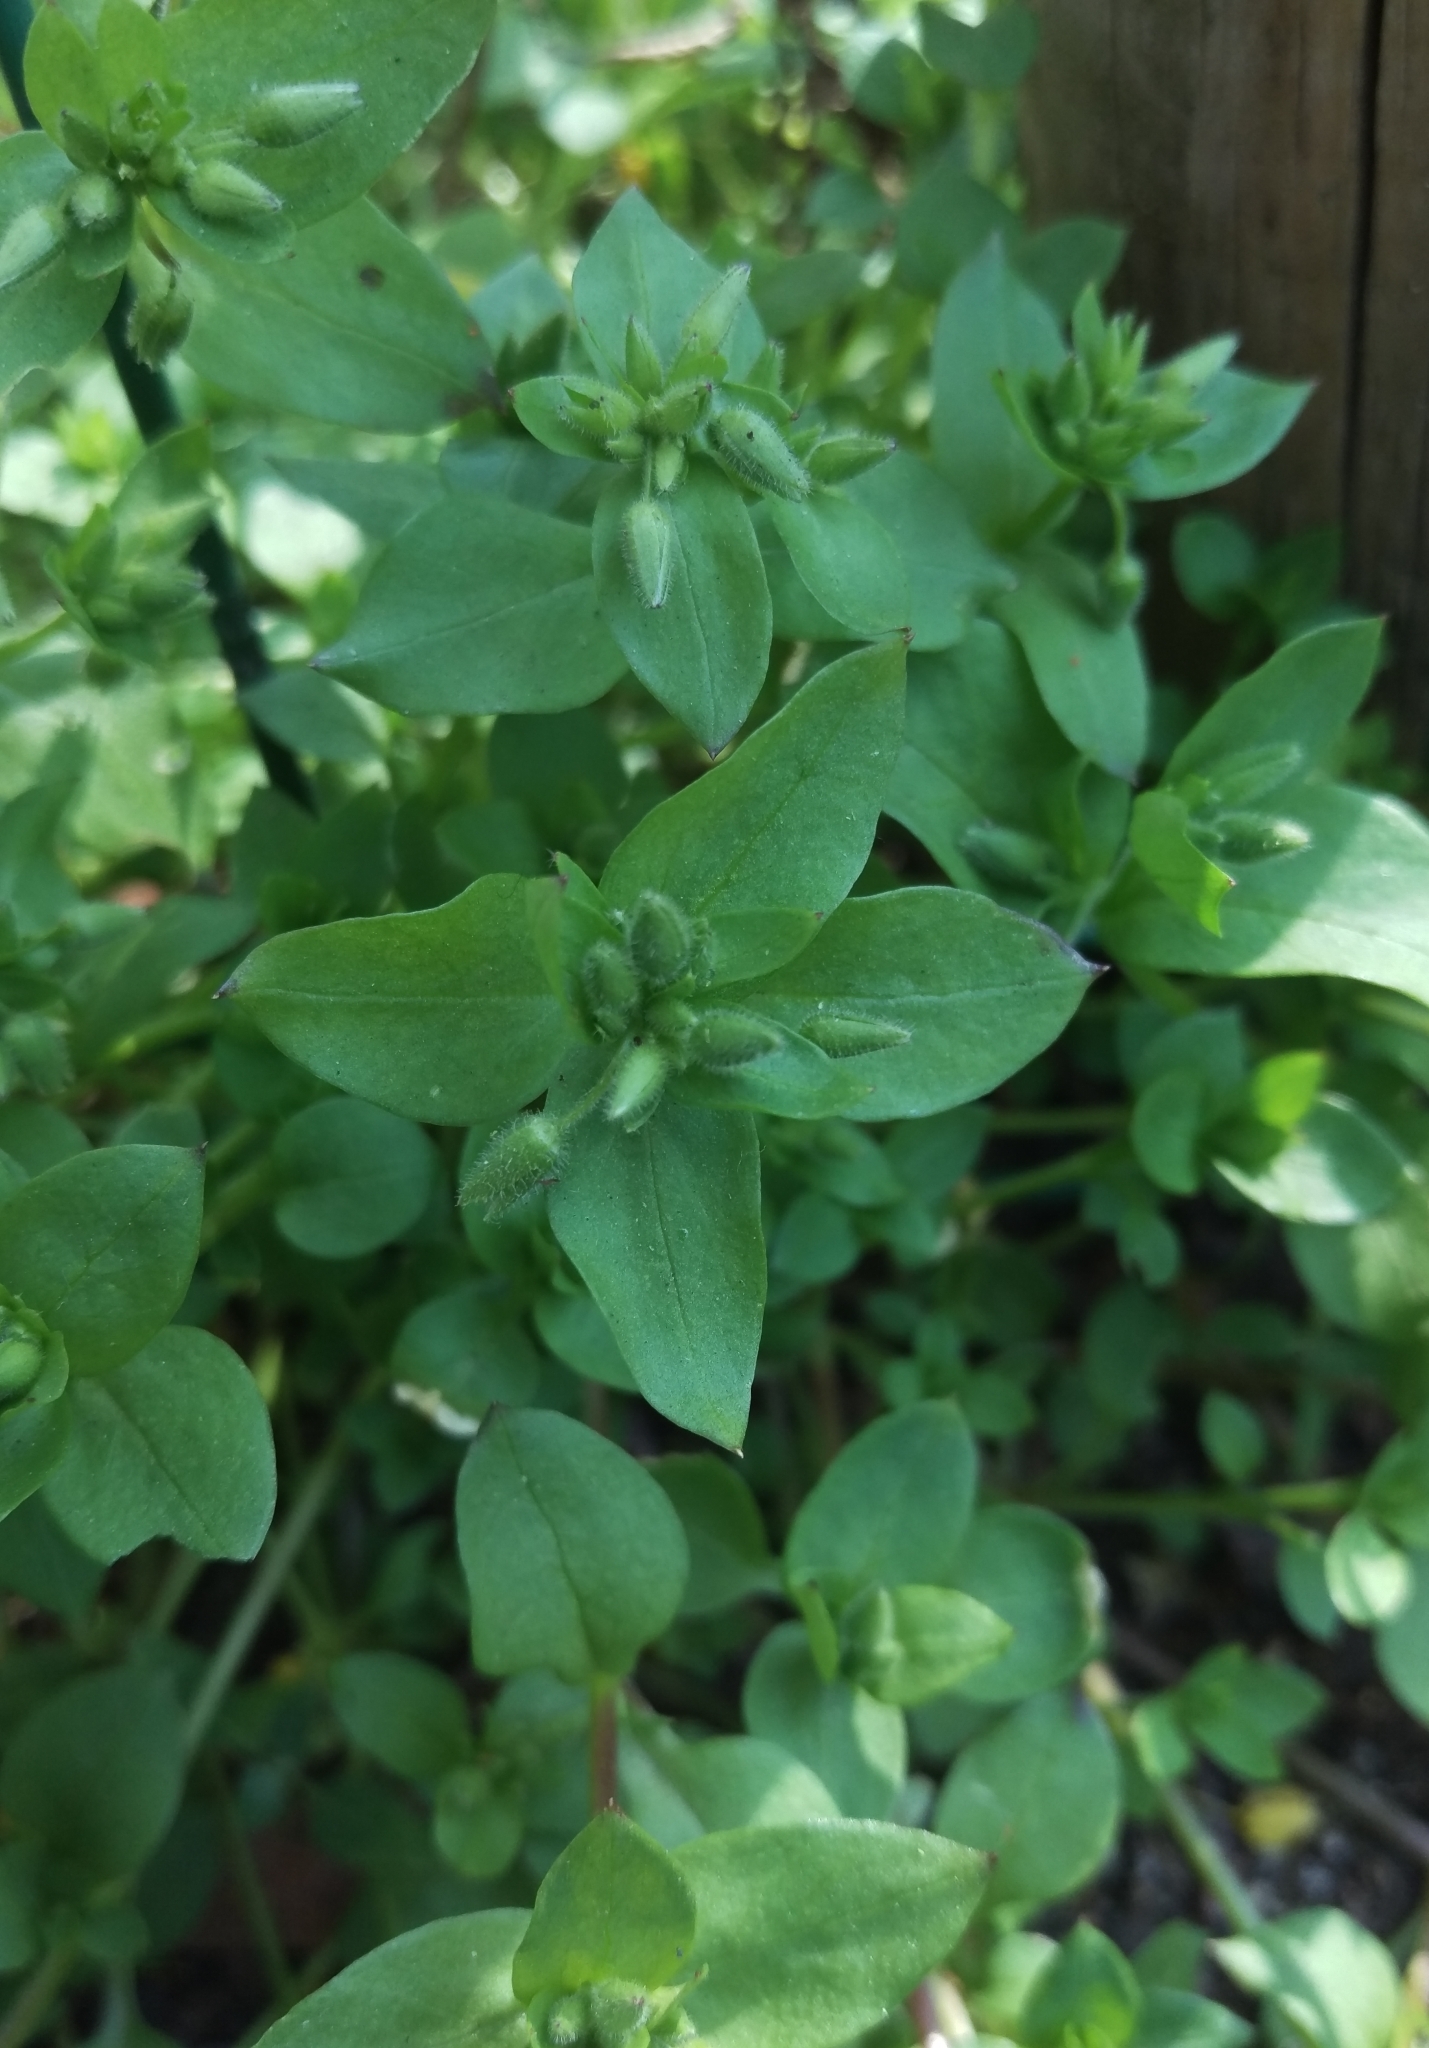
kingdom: Plantae
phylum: Tracheophyta
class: Magnoliopsida
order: Caryophyllales
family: Caryophyllaceae
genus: Stellaria
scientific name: Stellaria media
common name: Common chickweed
